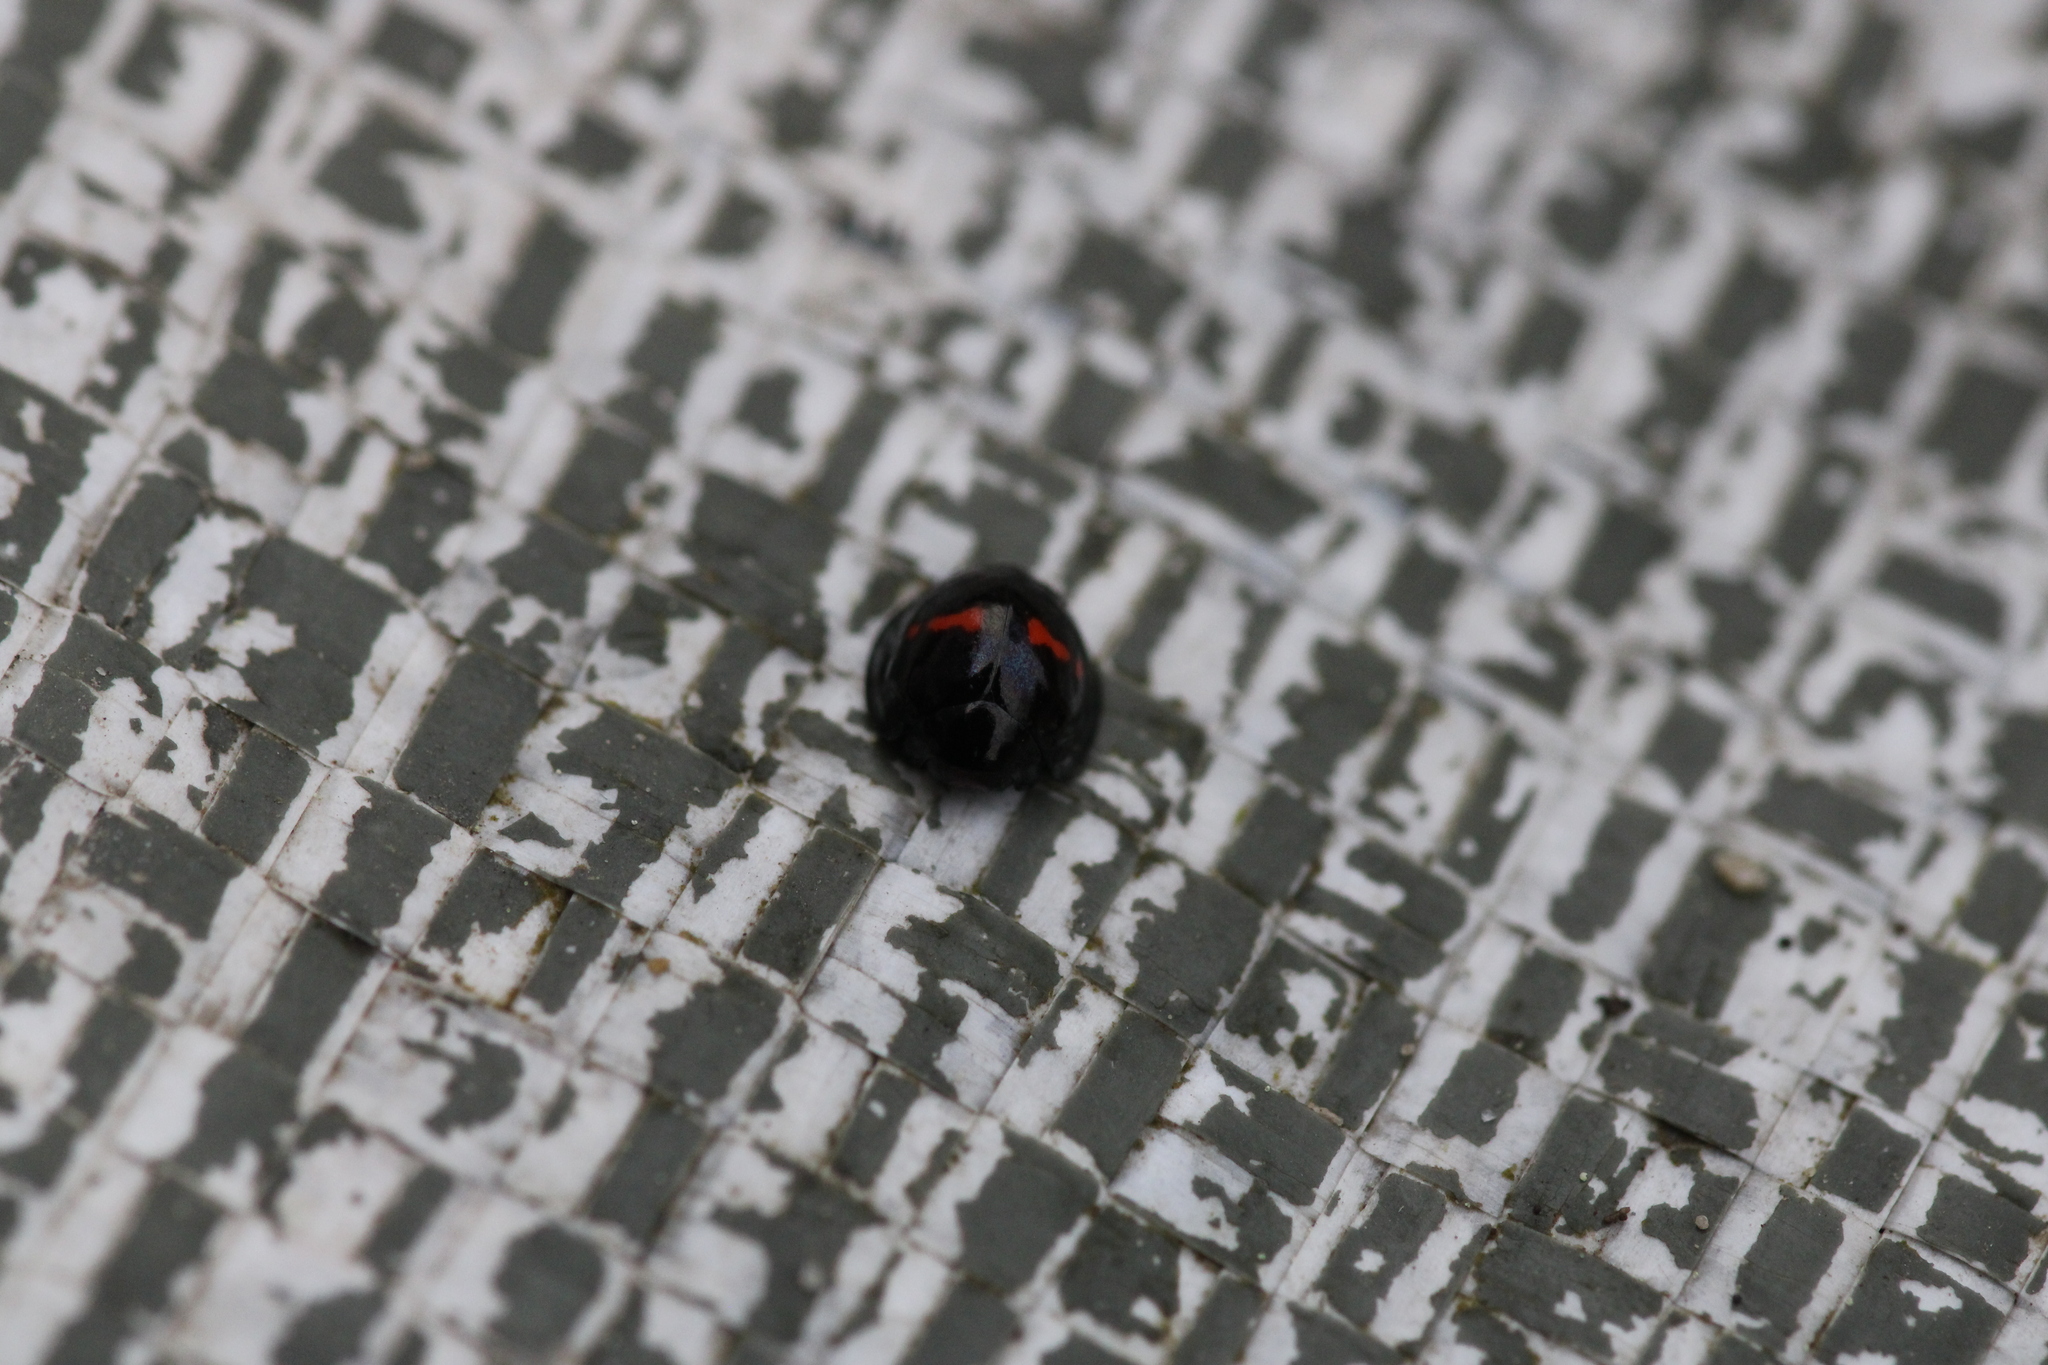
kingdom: Animalia
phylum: Arthropoda
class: Insecta
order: Coleoptera
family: Coccinellidae
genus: Chilocorus
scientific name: Chilocorus bipustulatus
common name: Heather ladybird
